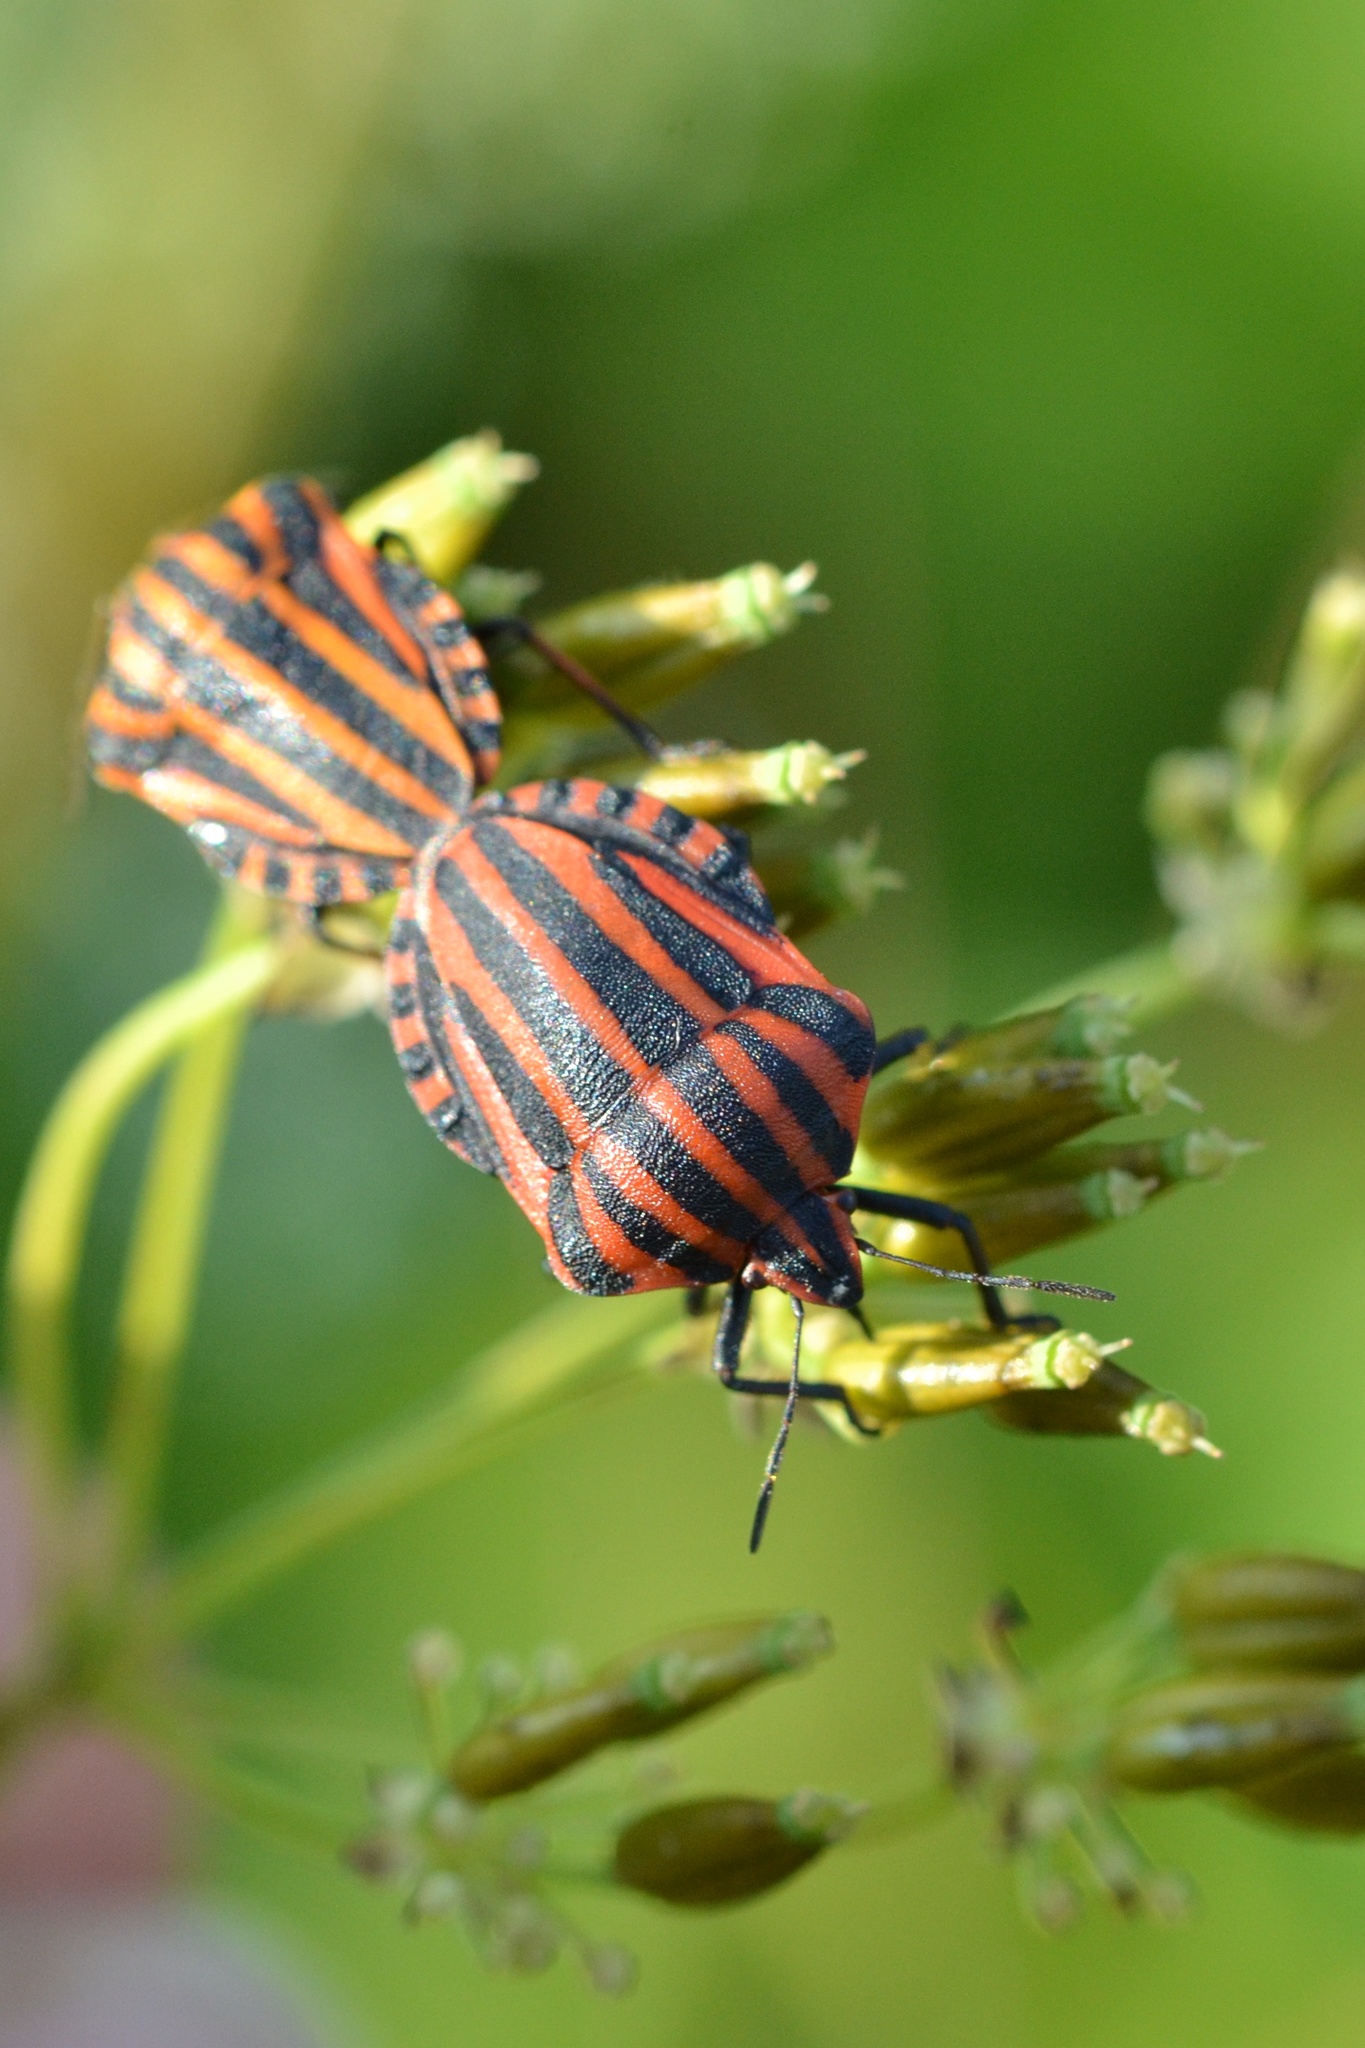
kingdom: Animalia
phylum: Arthropoda
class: Insecta
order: Hemiptera
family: Pentatomidae
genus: Graphosoma
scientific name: Graphosoma italicum
